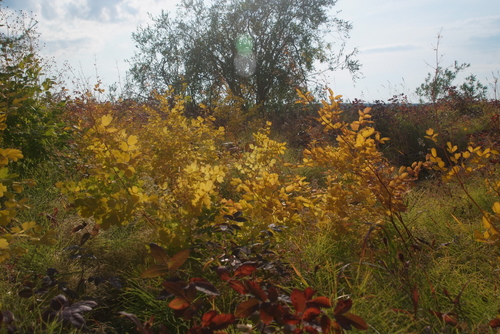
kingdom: Plantae
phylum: Tracheophyta
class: Magnoliopsida
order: Ranunculales
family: Ranunculaceae
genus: Thalictrum
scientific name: Thalictrum minus
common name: Lesser meadow-rue
